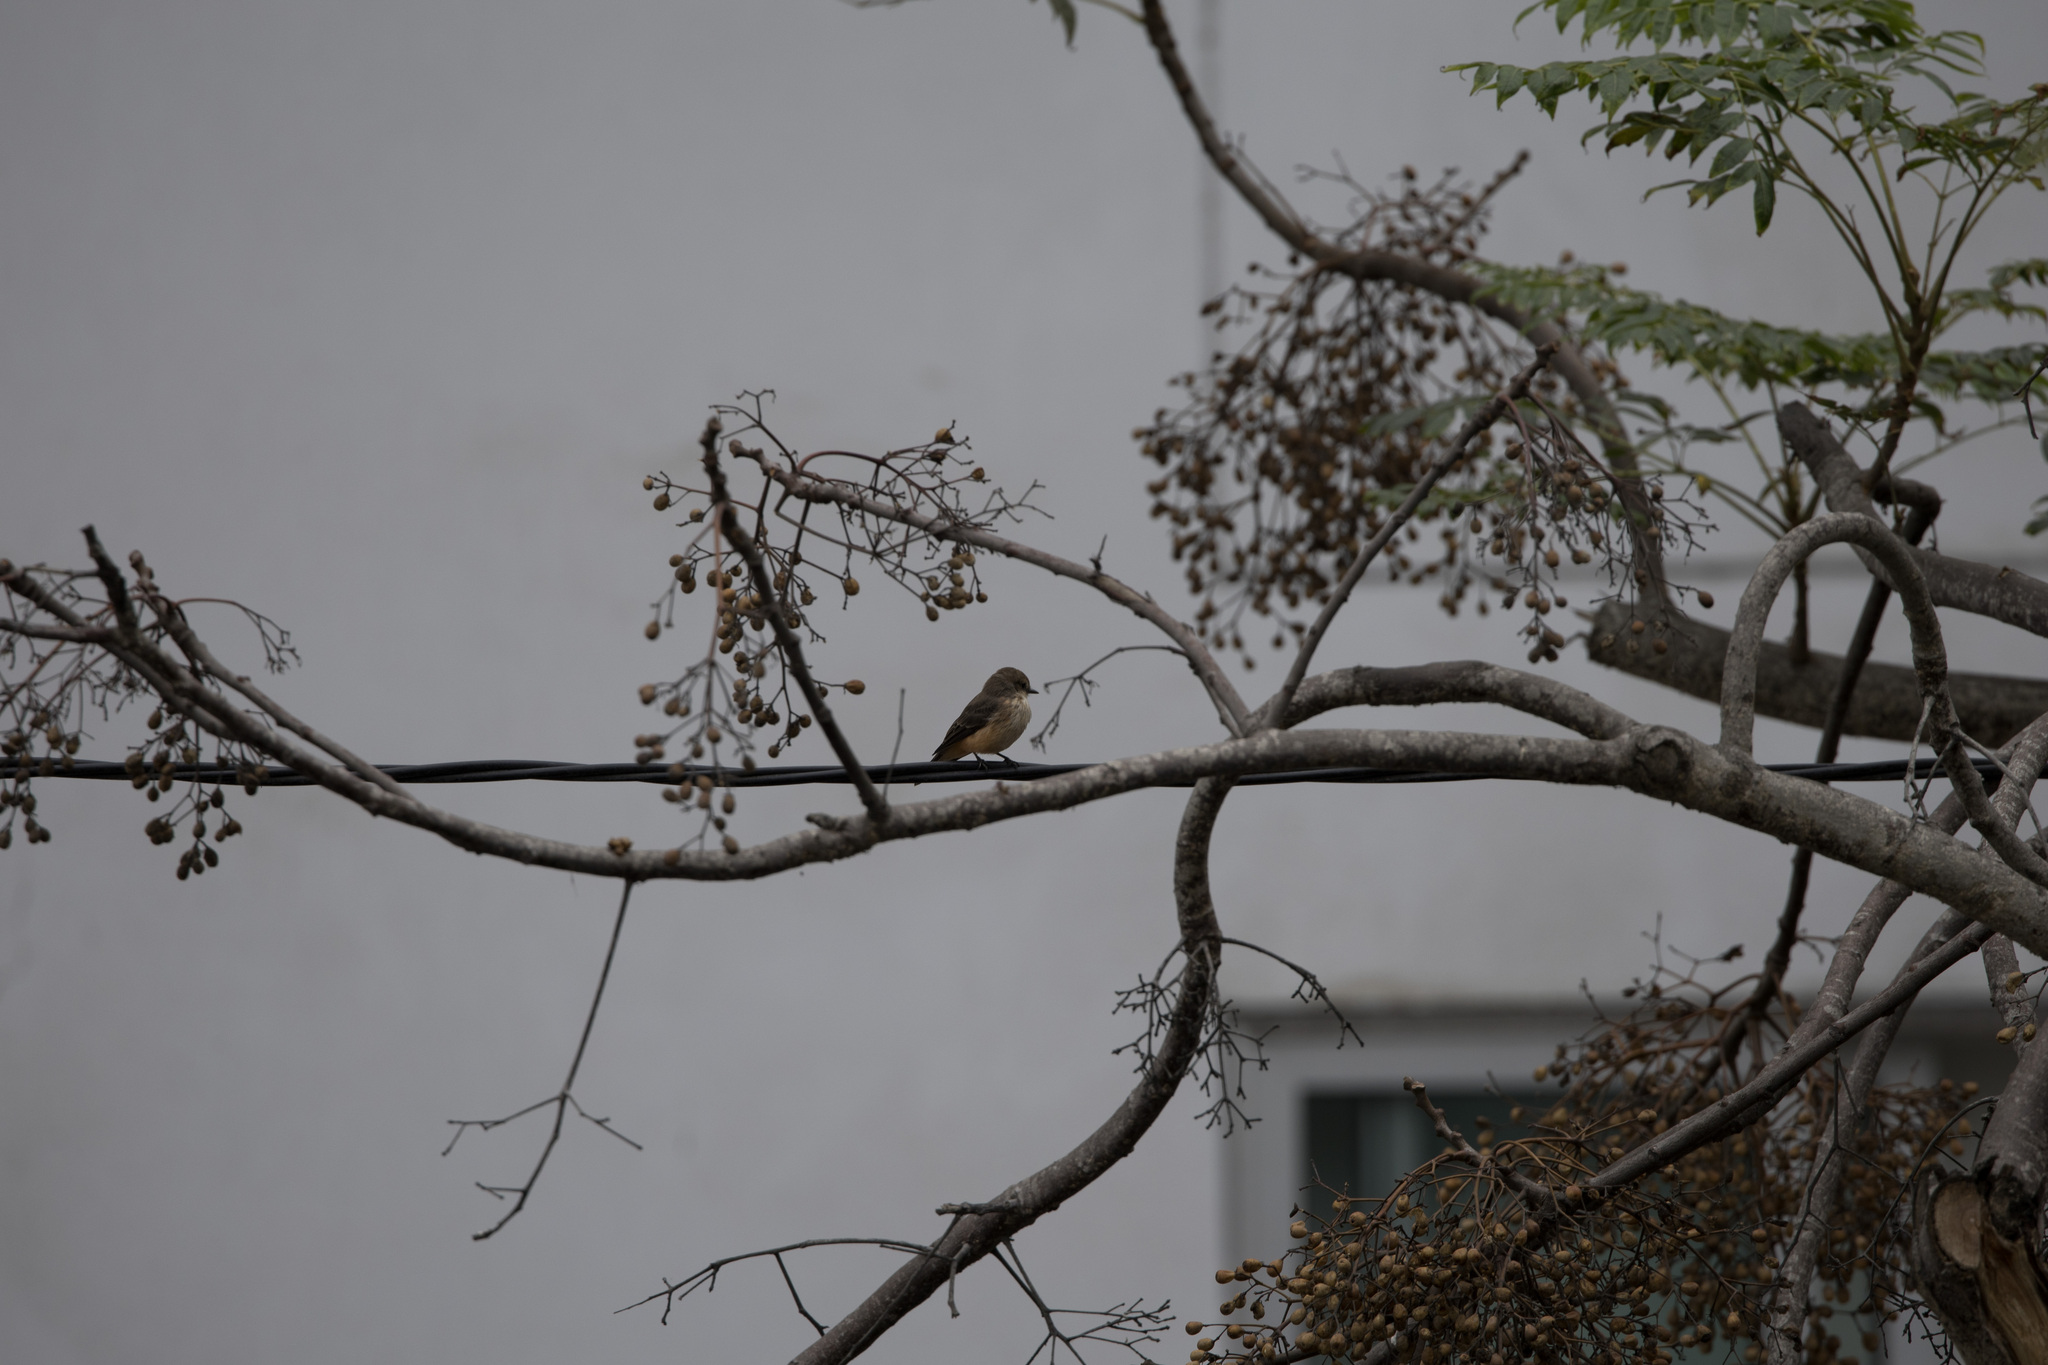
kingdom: Animalia
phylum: Chordata
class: Aves
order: Passeriformes
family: Tyrannidae
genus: Pyrocephalus
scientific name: Pyrocephalus rubinus
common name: Vermilion flycatcher
